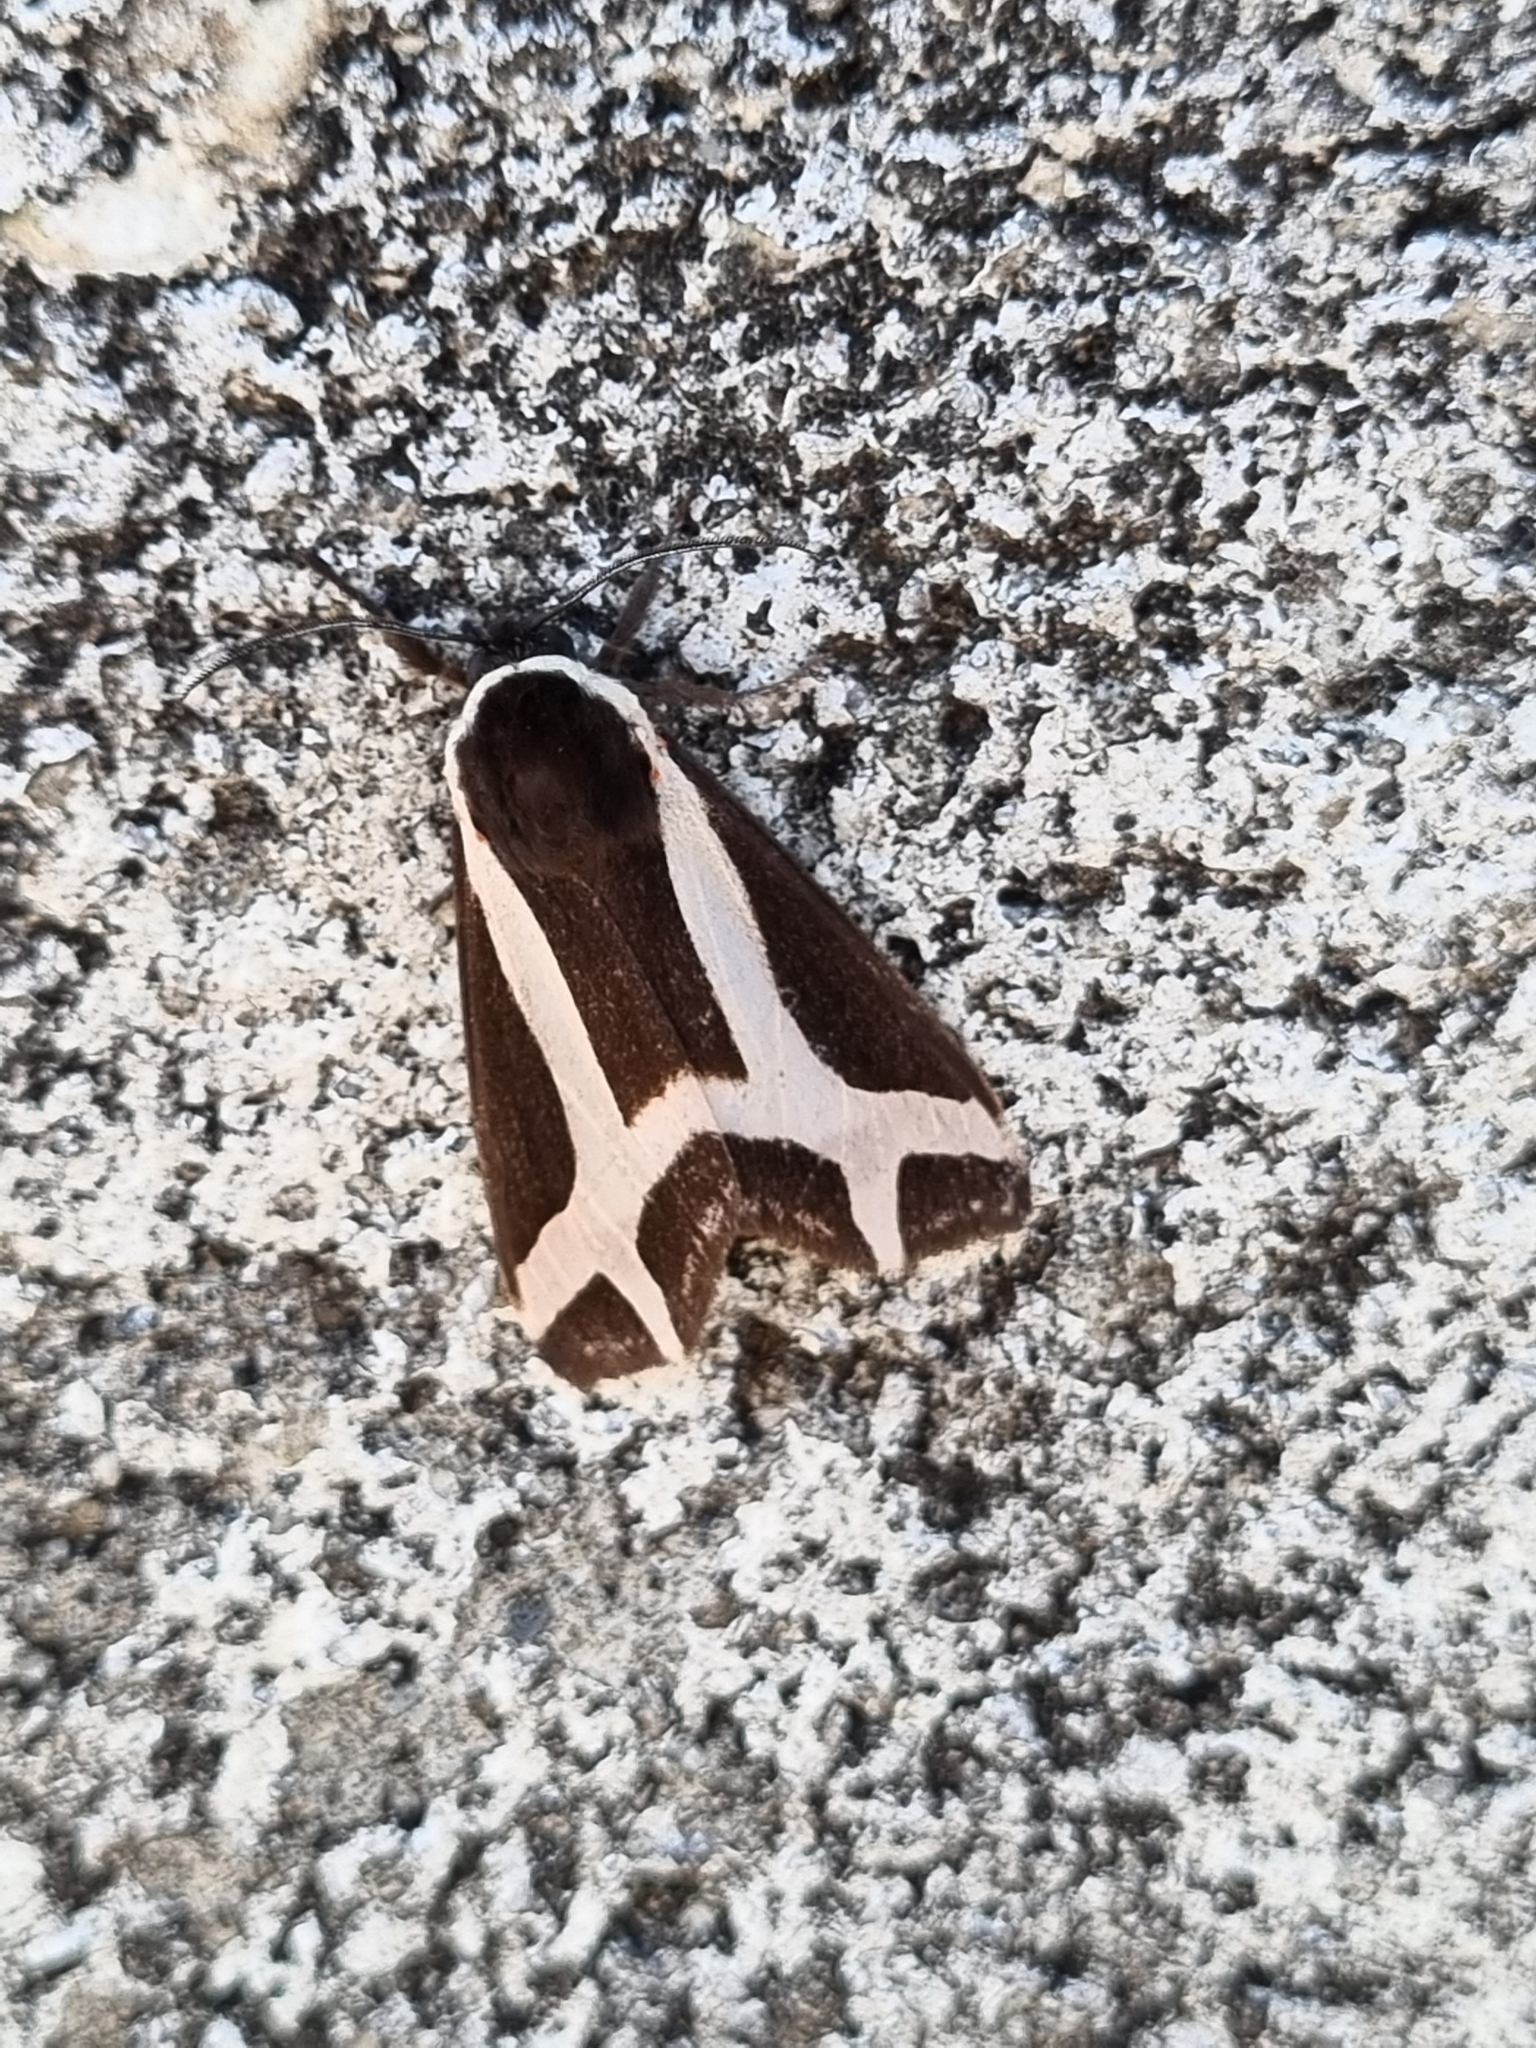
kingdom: Animalia
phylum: Arthropoda
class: Insecta
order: Lepidoptera
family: Erebidae
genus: Dysschema
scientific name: Dysschema sacrifica
